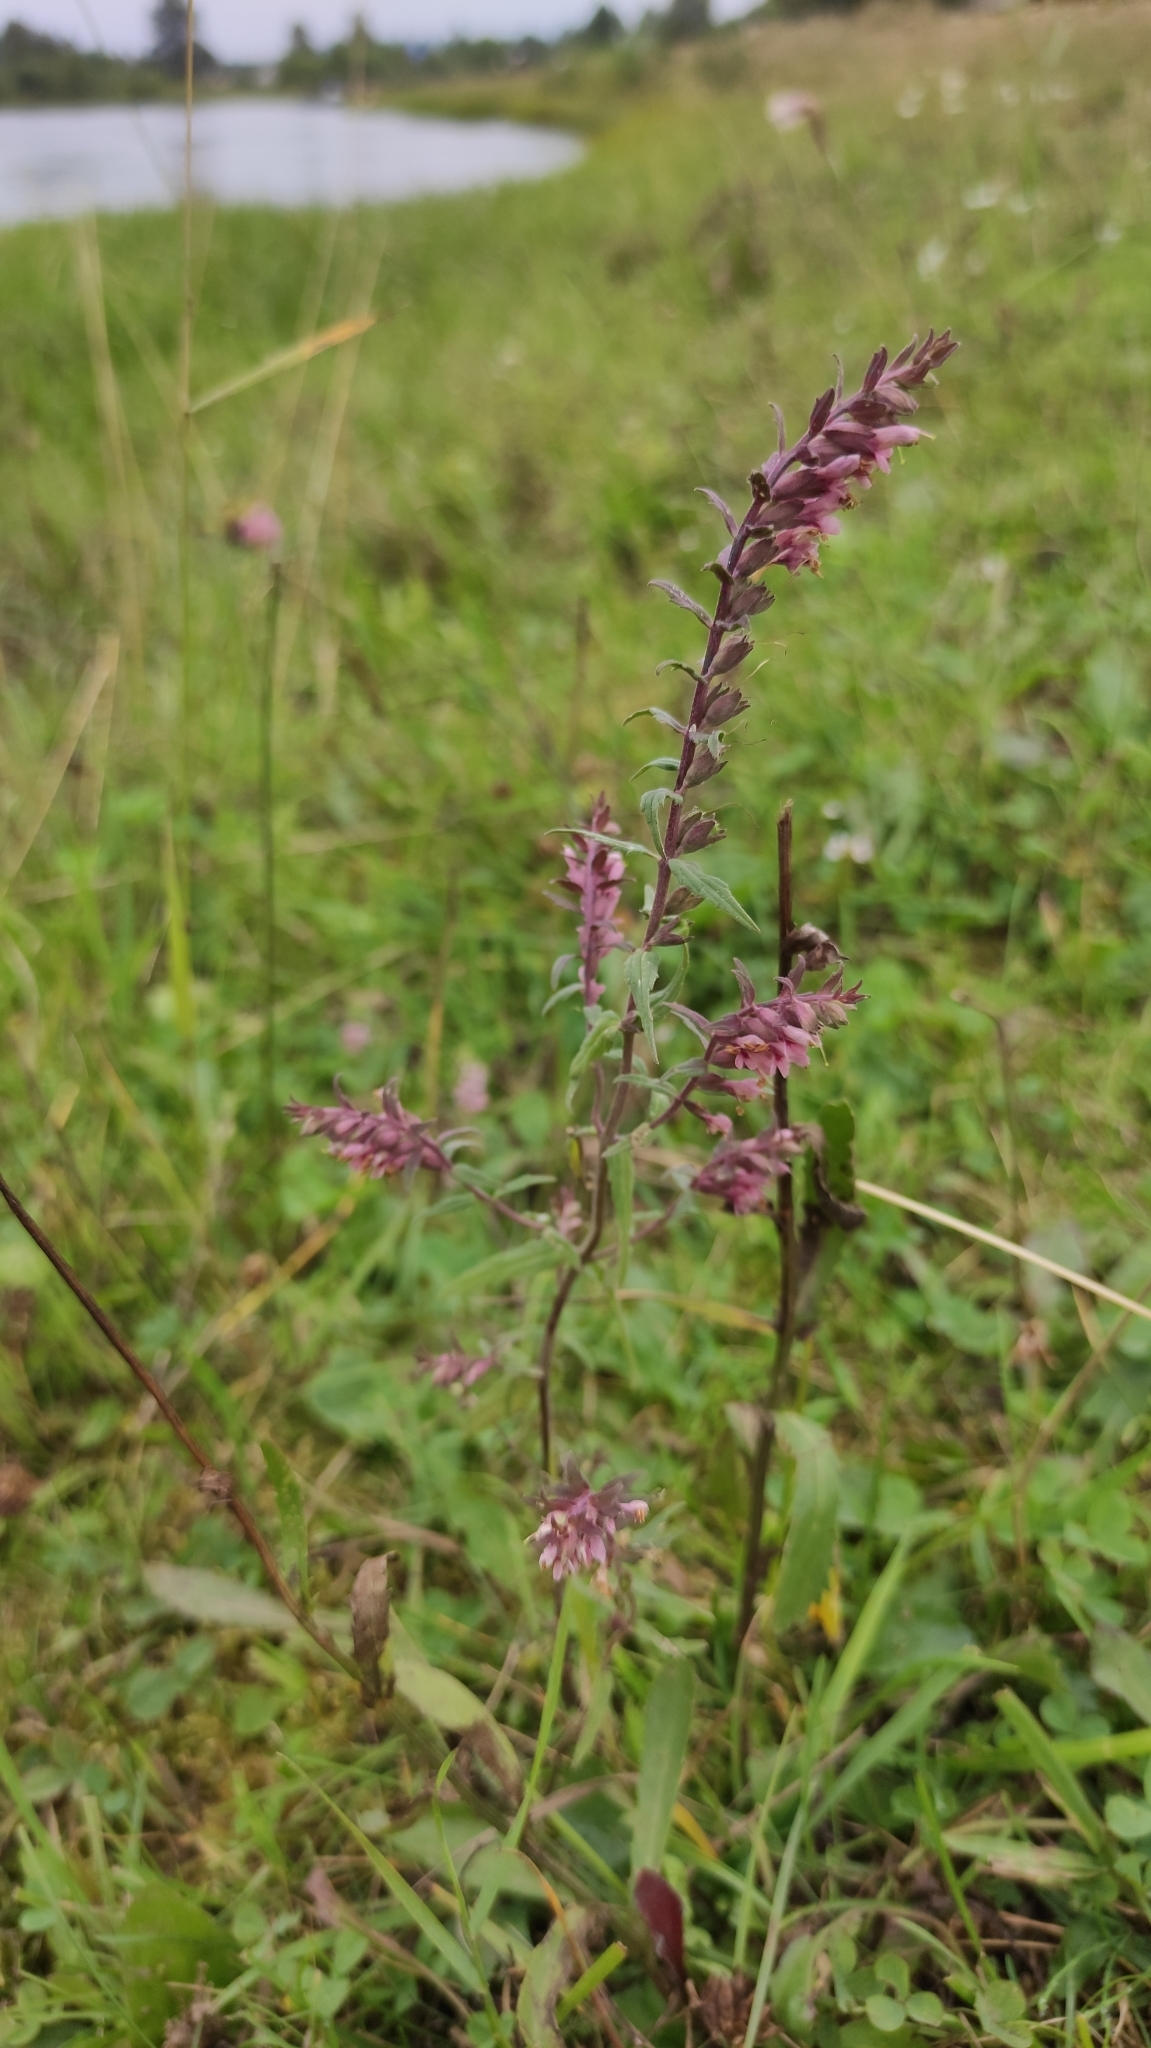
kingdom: Plantae
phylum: Tracheophyta
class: Magnoliopsida
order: Lamiales
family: Orobanchaceae
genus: Odontites
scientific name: Odontites vulgaris
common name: Broomrape
